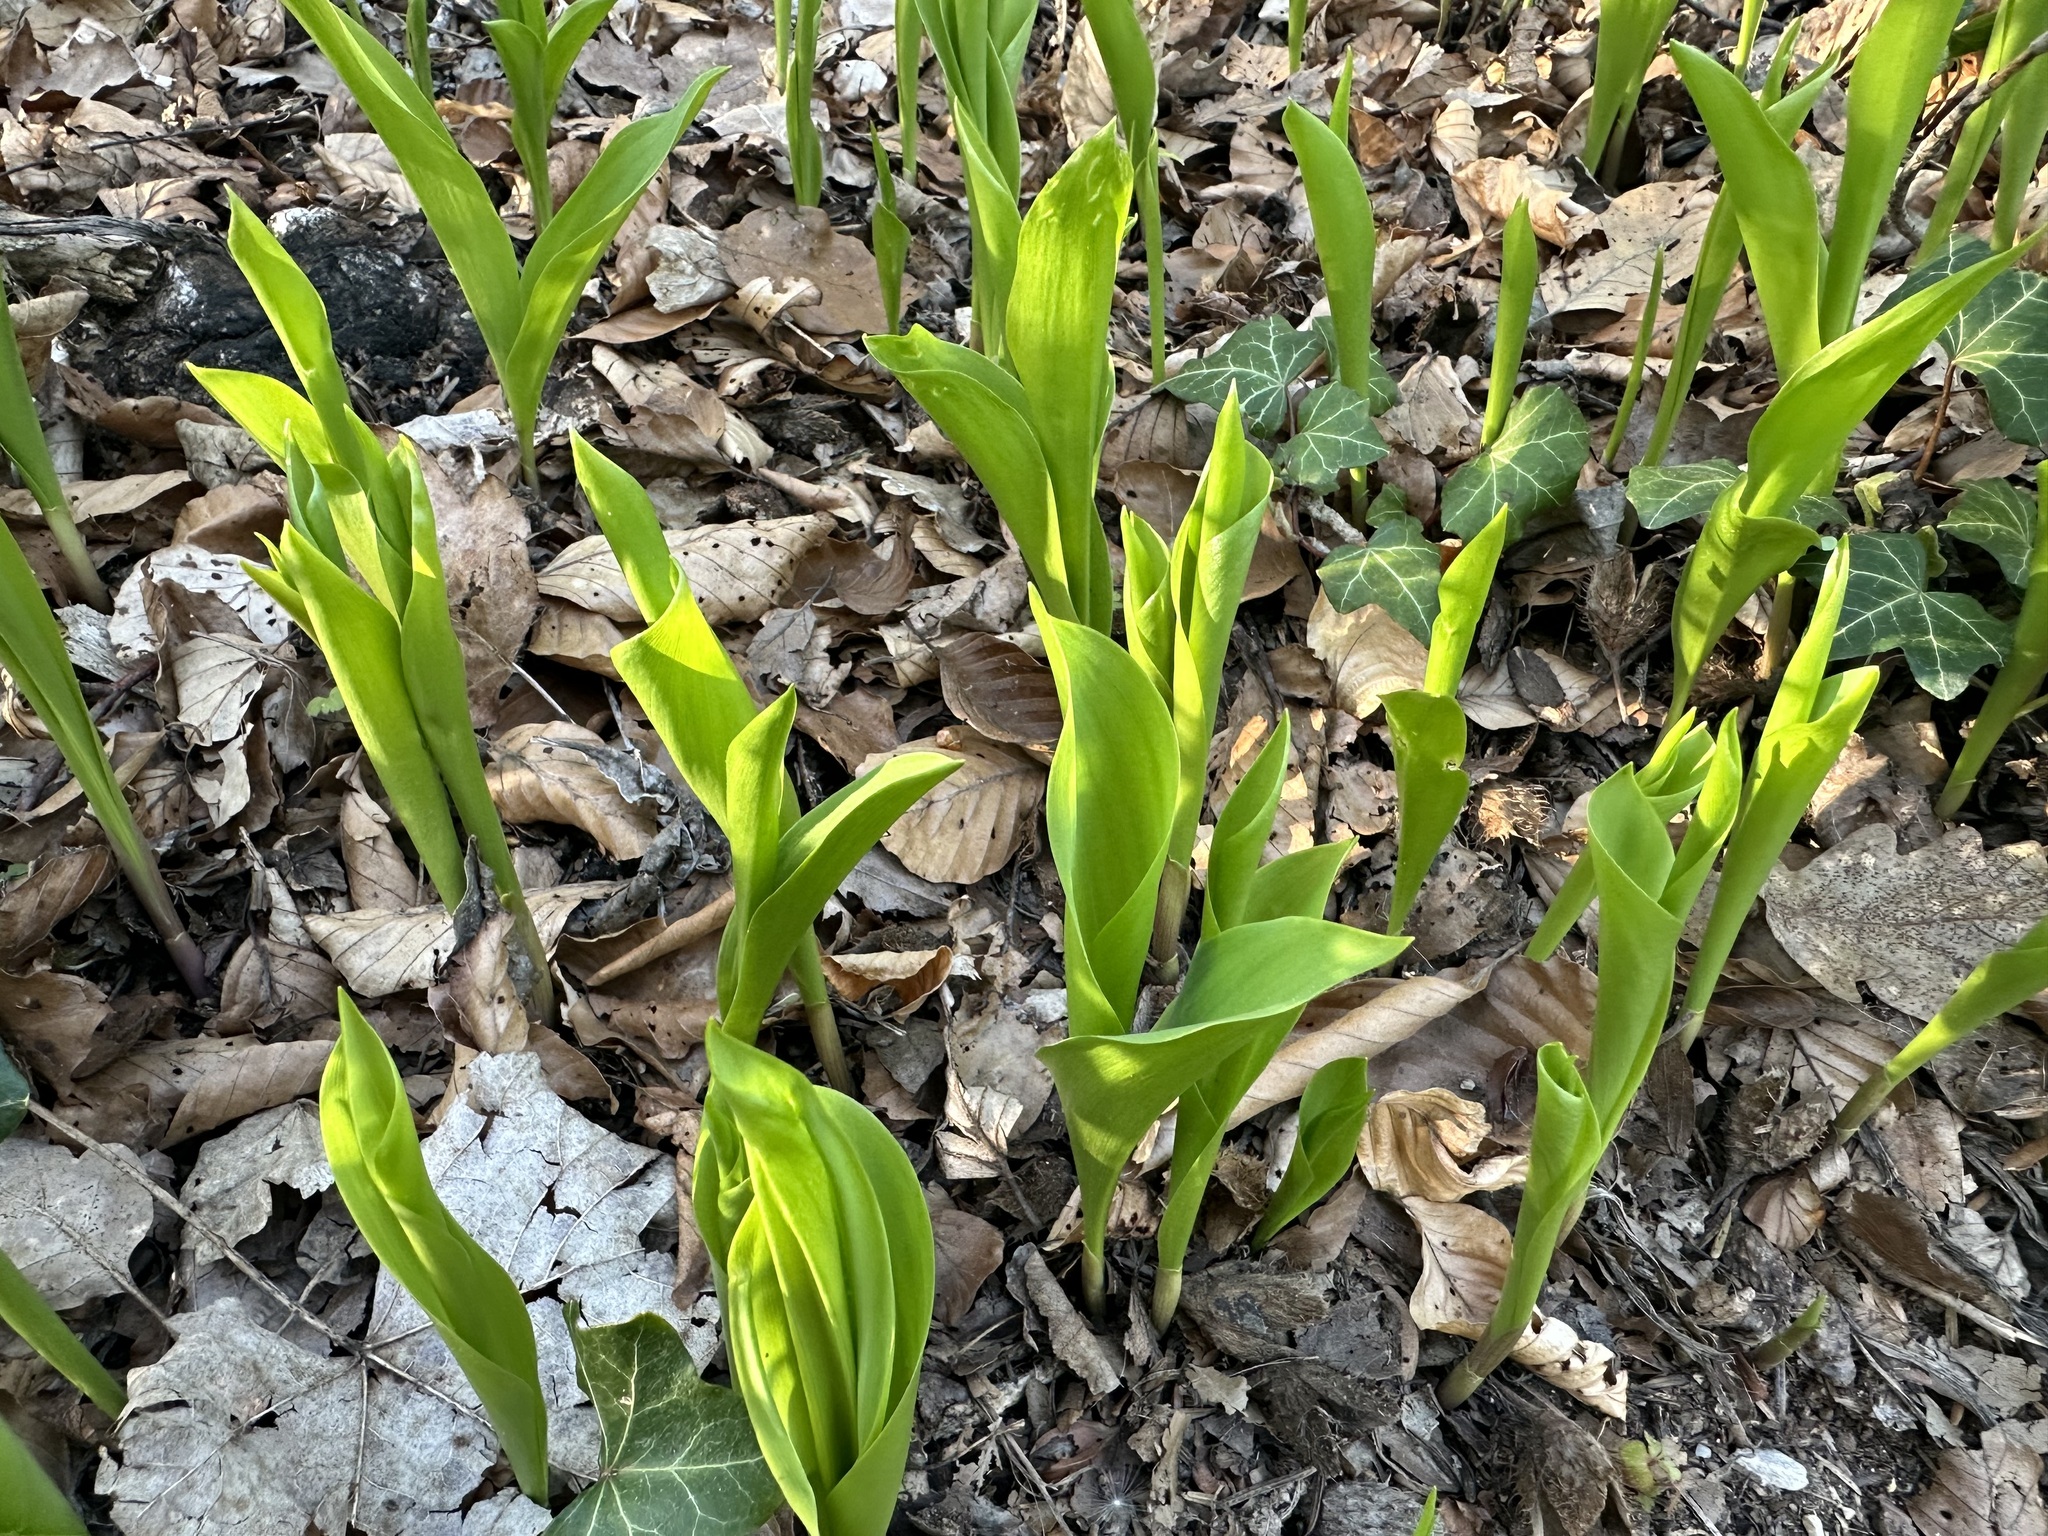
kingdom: Plantae
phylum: Tracheophyta
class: Liliopsida
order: Asparagales
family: Asparagaceae
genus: Convallaria
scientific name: Convallaria majalis
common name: Lily-of-the-valley
